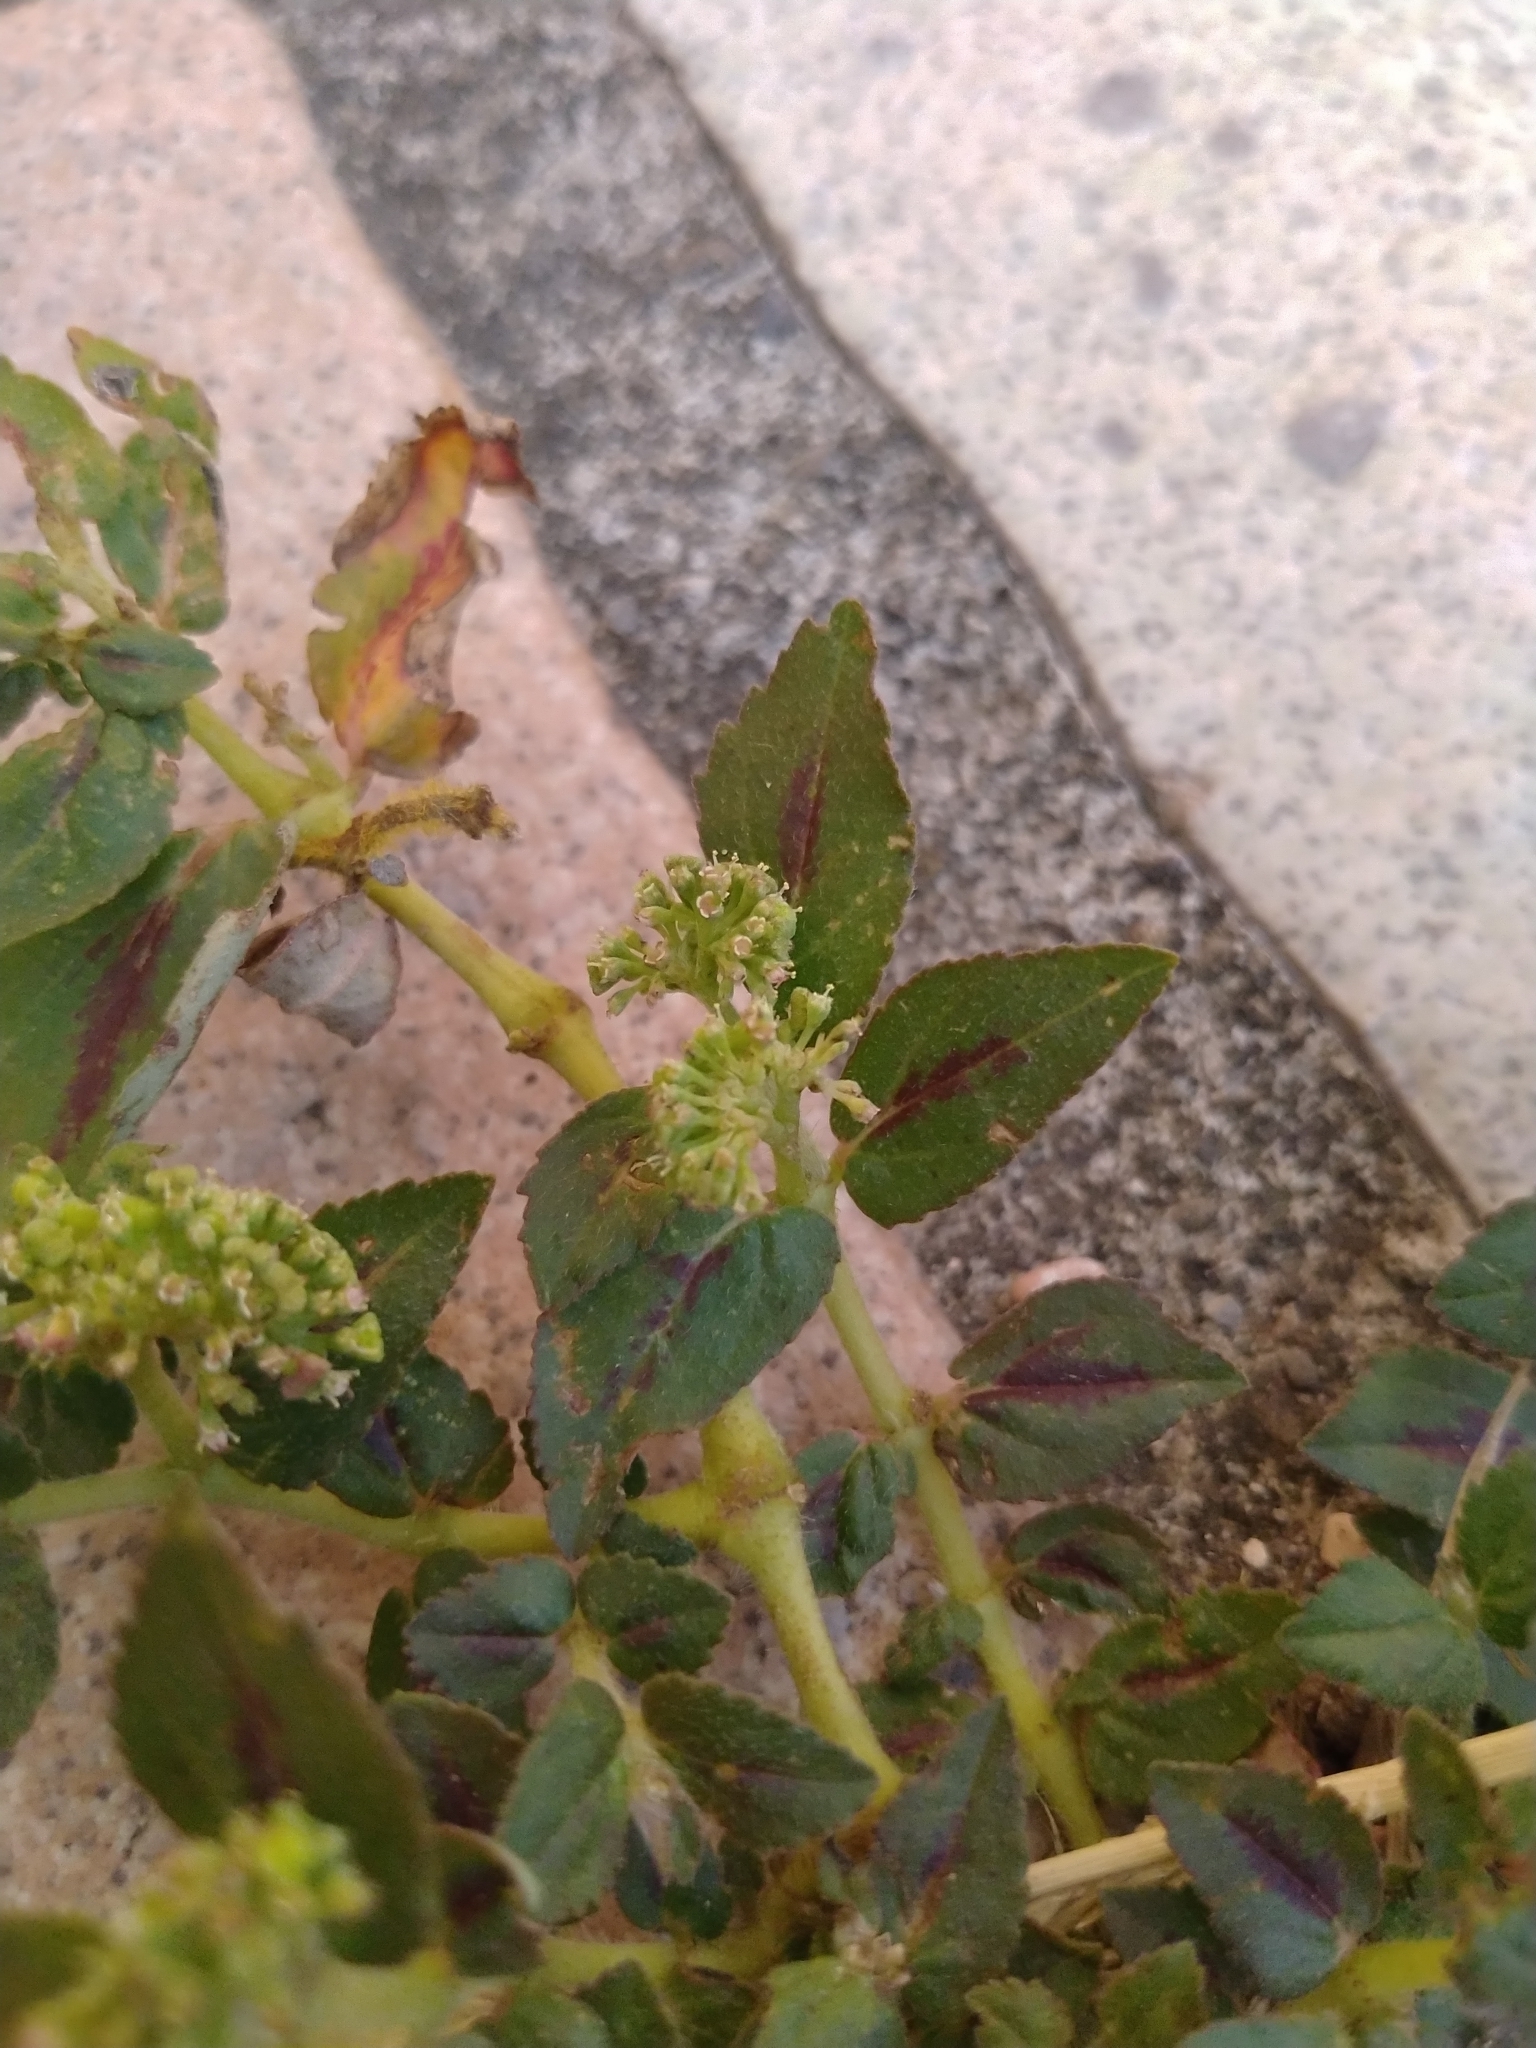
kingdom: Plantae
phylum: Tracheophyta
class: Magnoliopsida
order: Malpighiales
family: Euphorbiaceae
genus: Euphorbia
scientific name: Euphorbia hirta
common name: Pillpod sandmat
